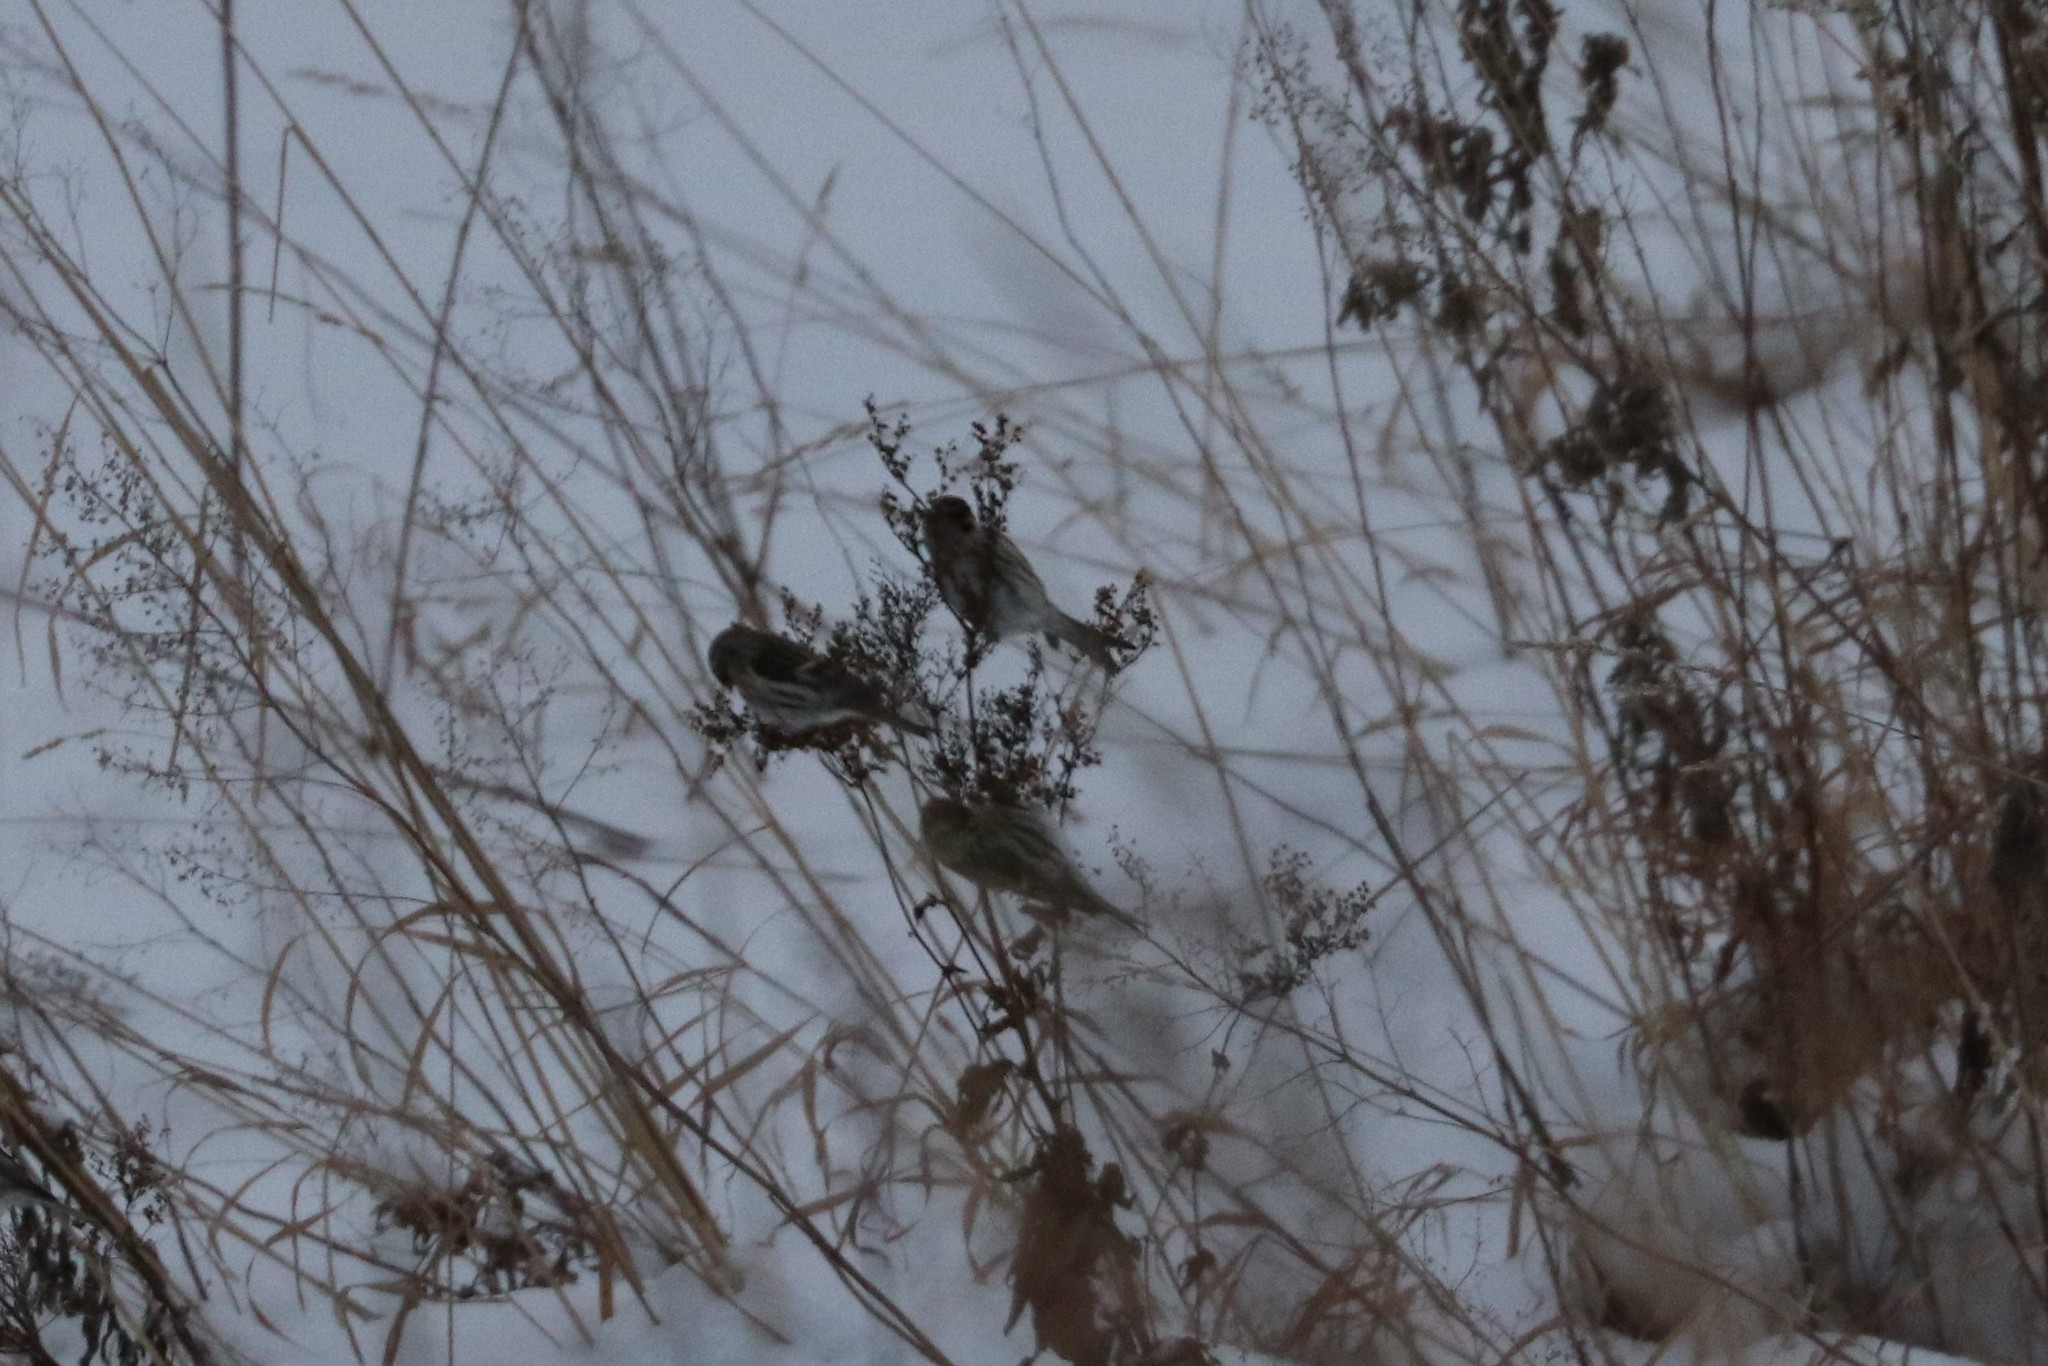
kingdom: Animalia
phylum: Chordata
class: Aves
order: Passeriformes
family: Fringillidae
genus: Acanthis
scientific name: Acanthis flammea
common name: Common redpoll
